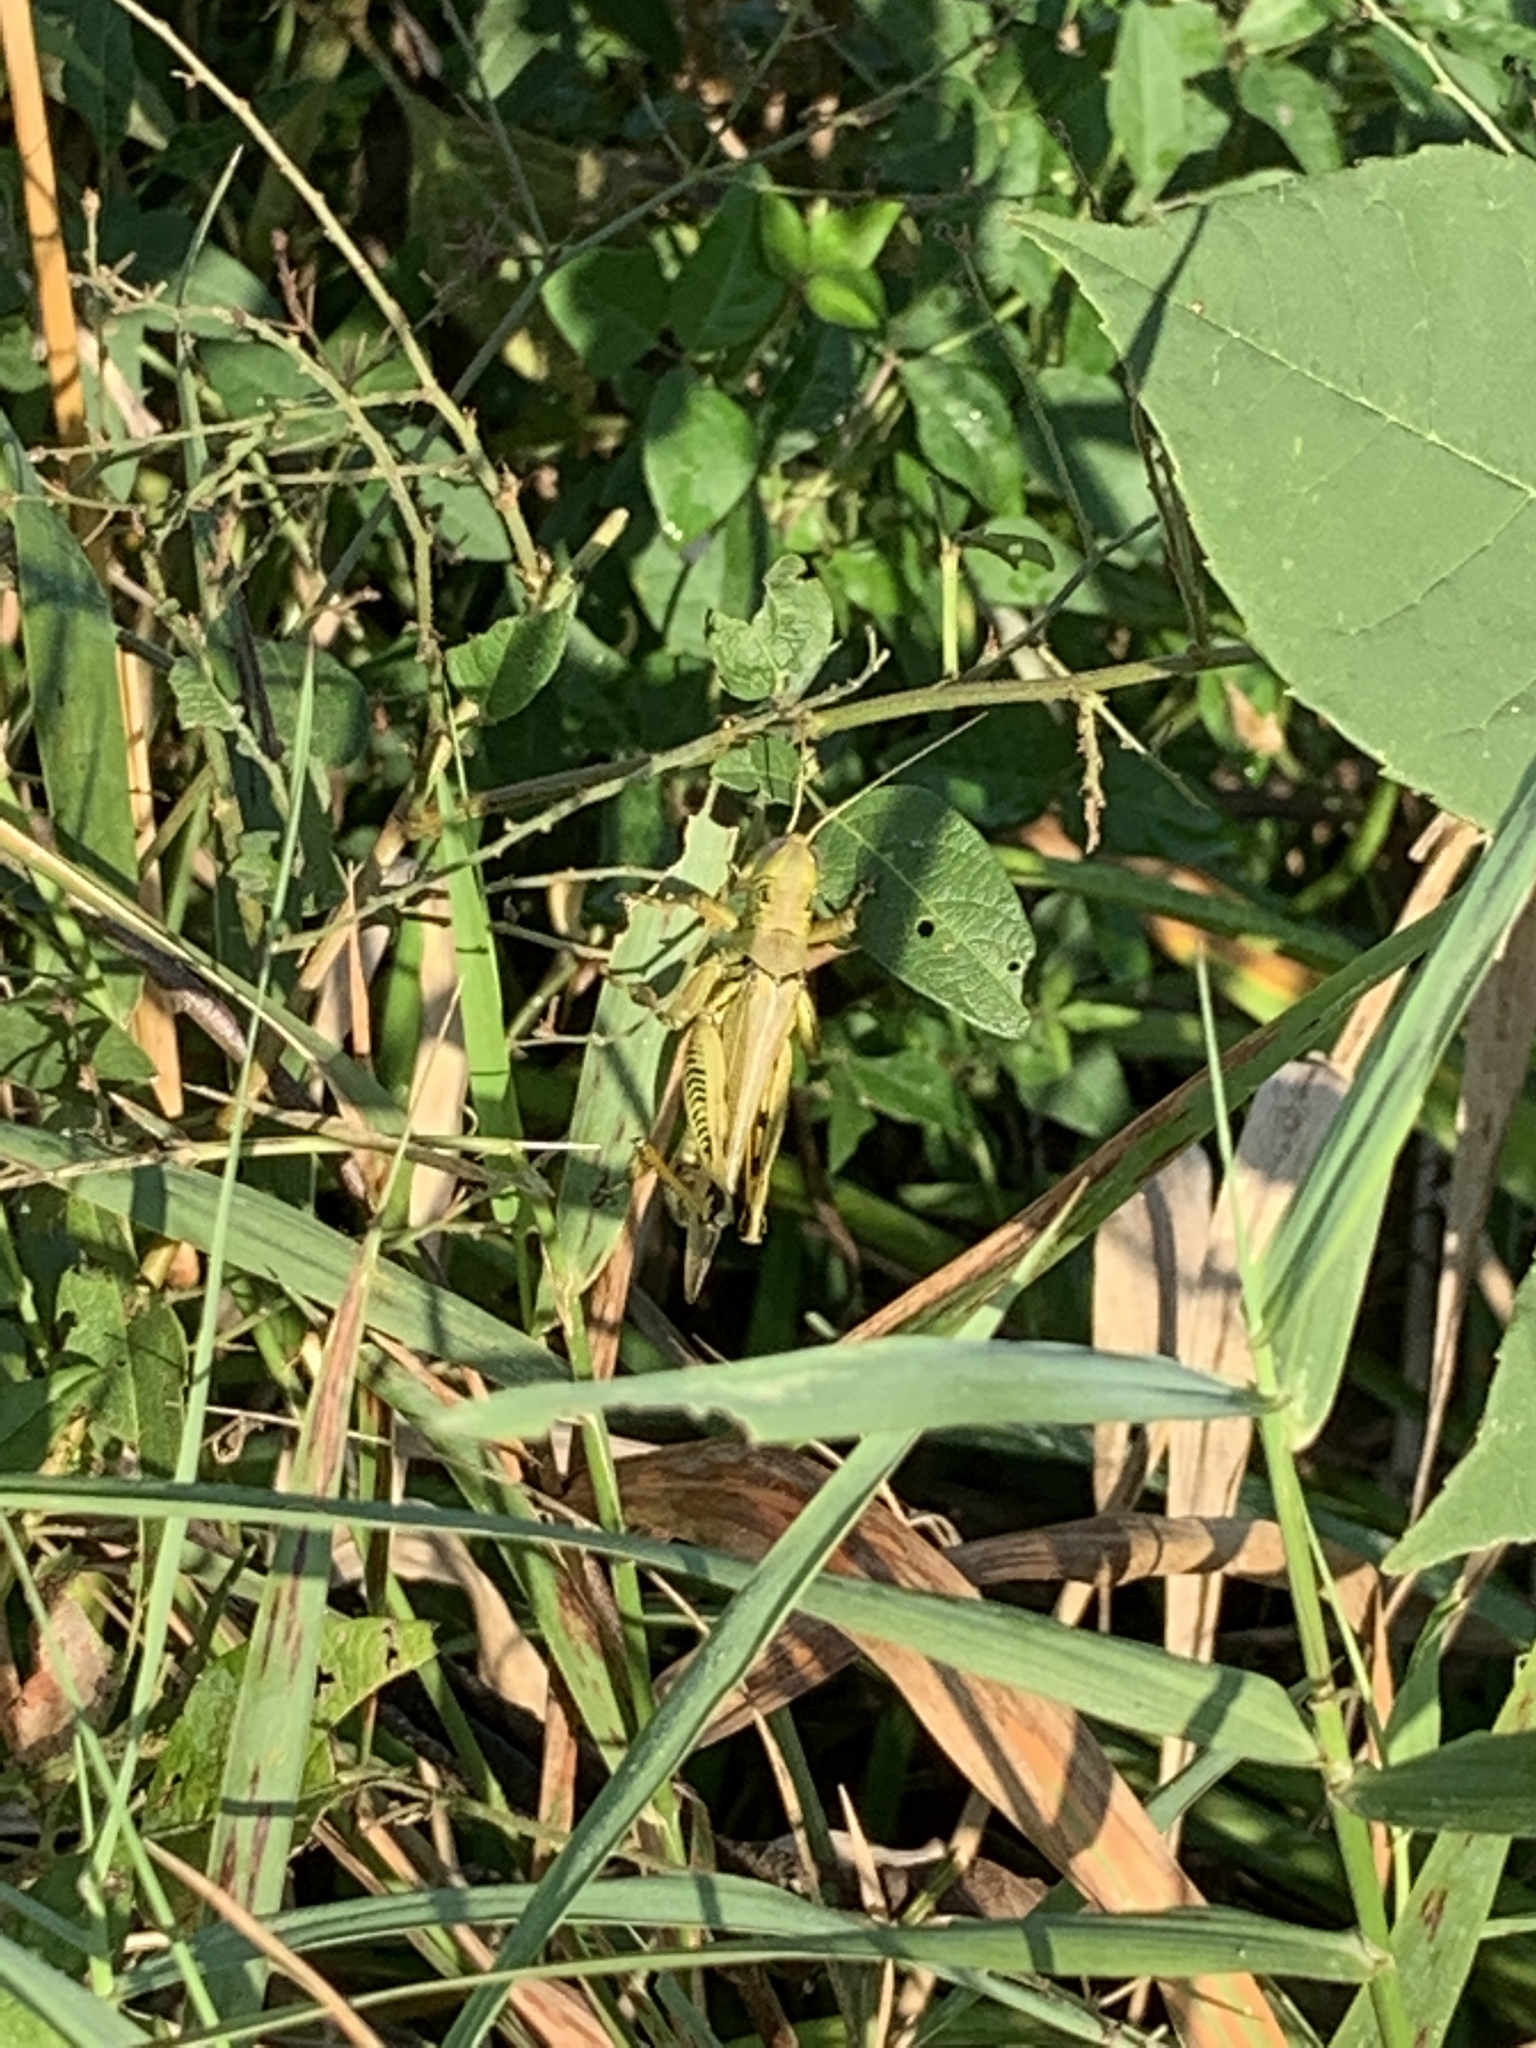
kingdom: Animalia
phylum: Arthropoda
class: Insecta
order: Orthoptera
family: Acrididae
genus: Melanoplus
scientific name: Melanoplus differentialis
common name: Differential grasshopper
